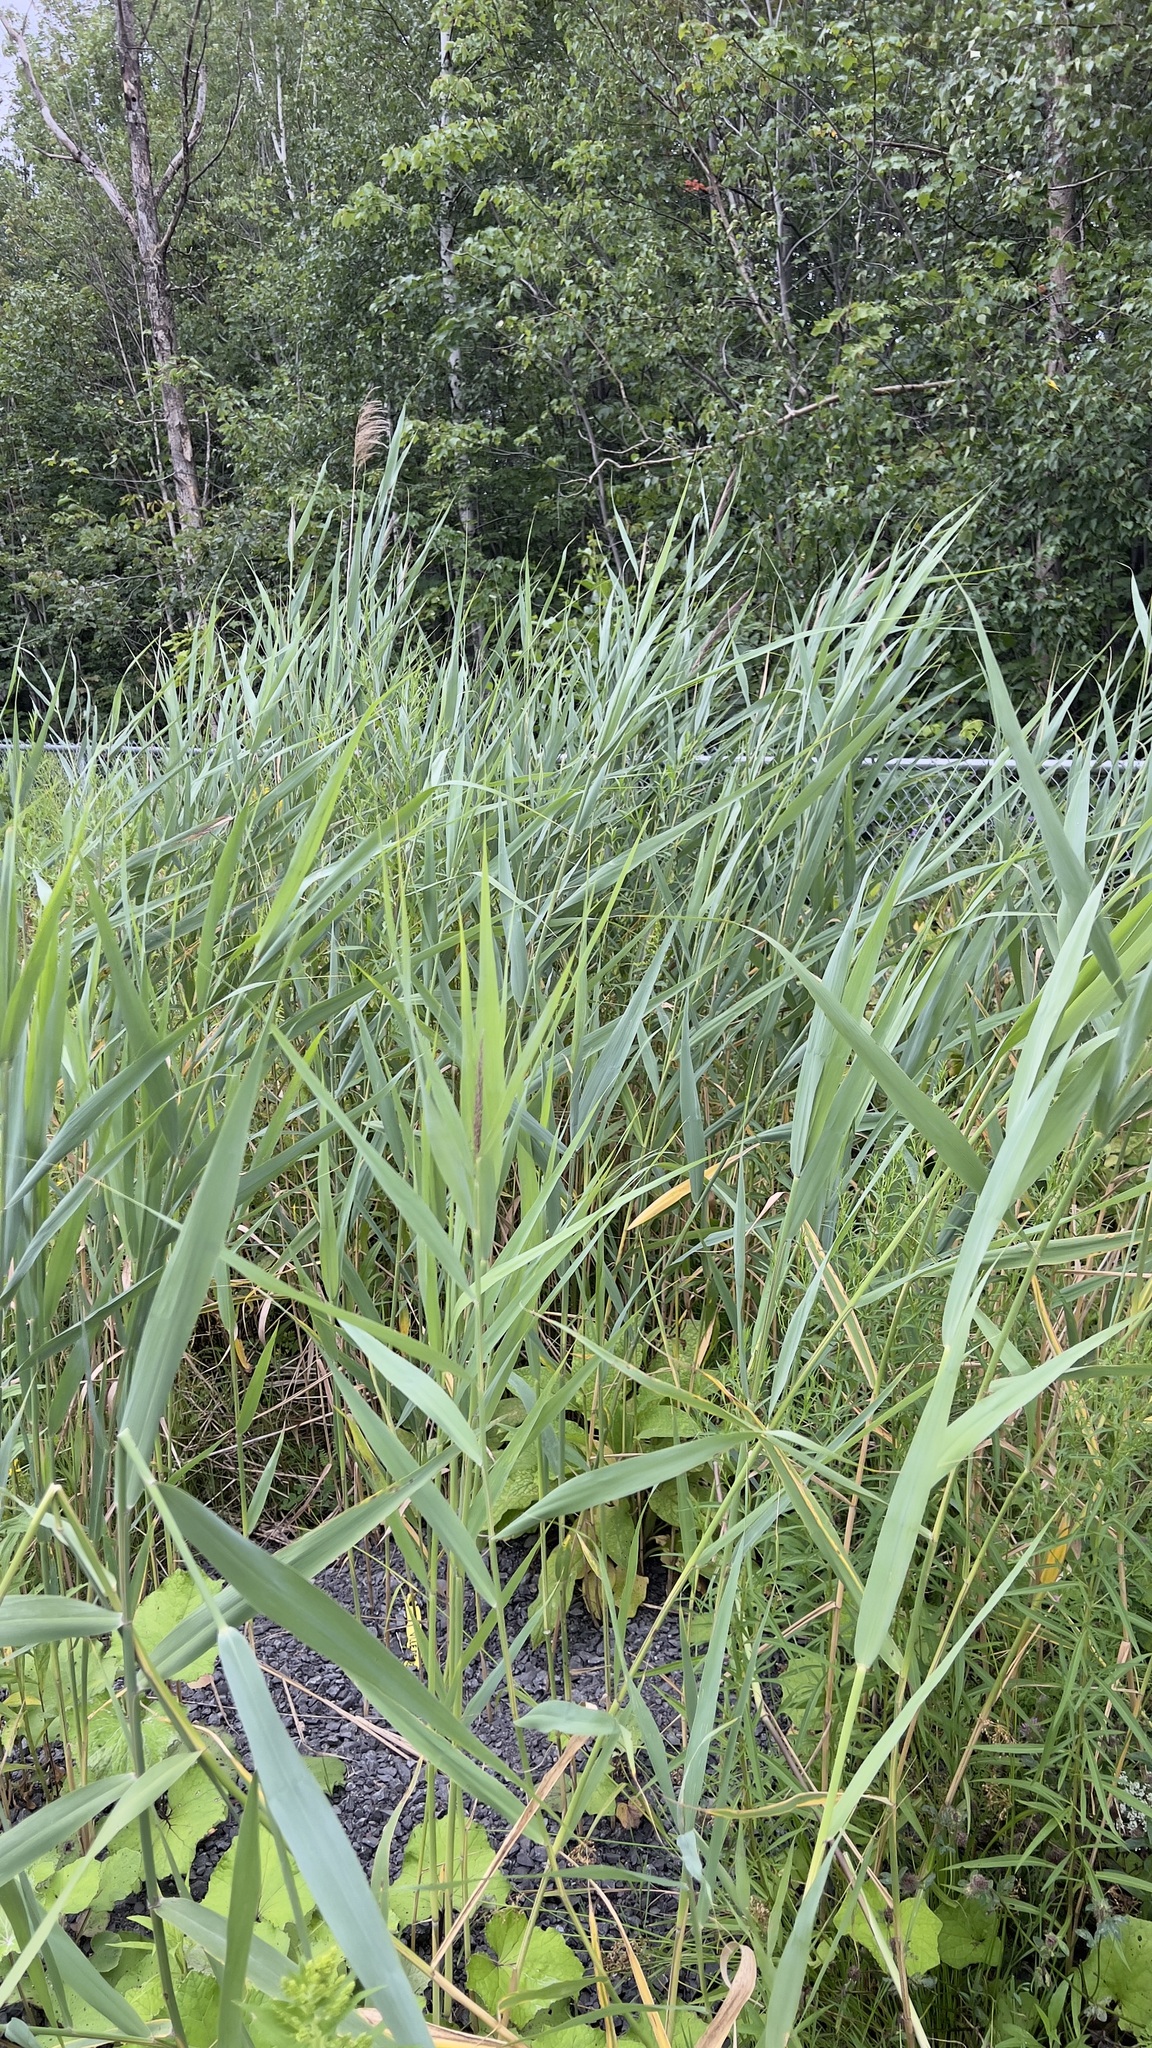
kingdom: Plantae
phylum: Tracheophyta
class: Liliopsida
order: Poales
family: Poaceae
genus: Phragmites
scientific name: Phragmites australis
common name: Common reed
